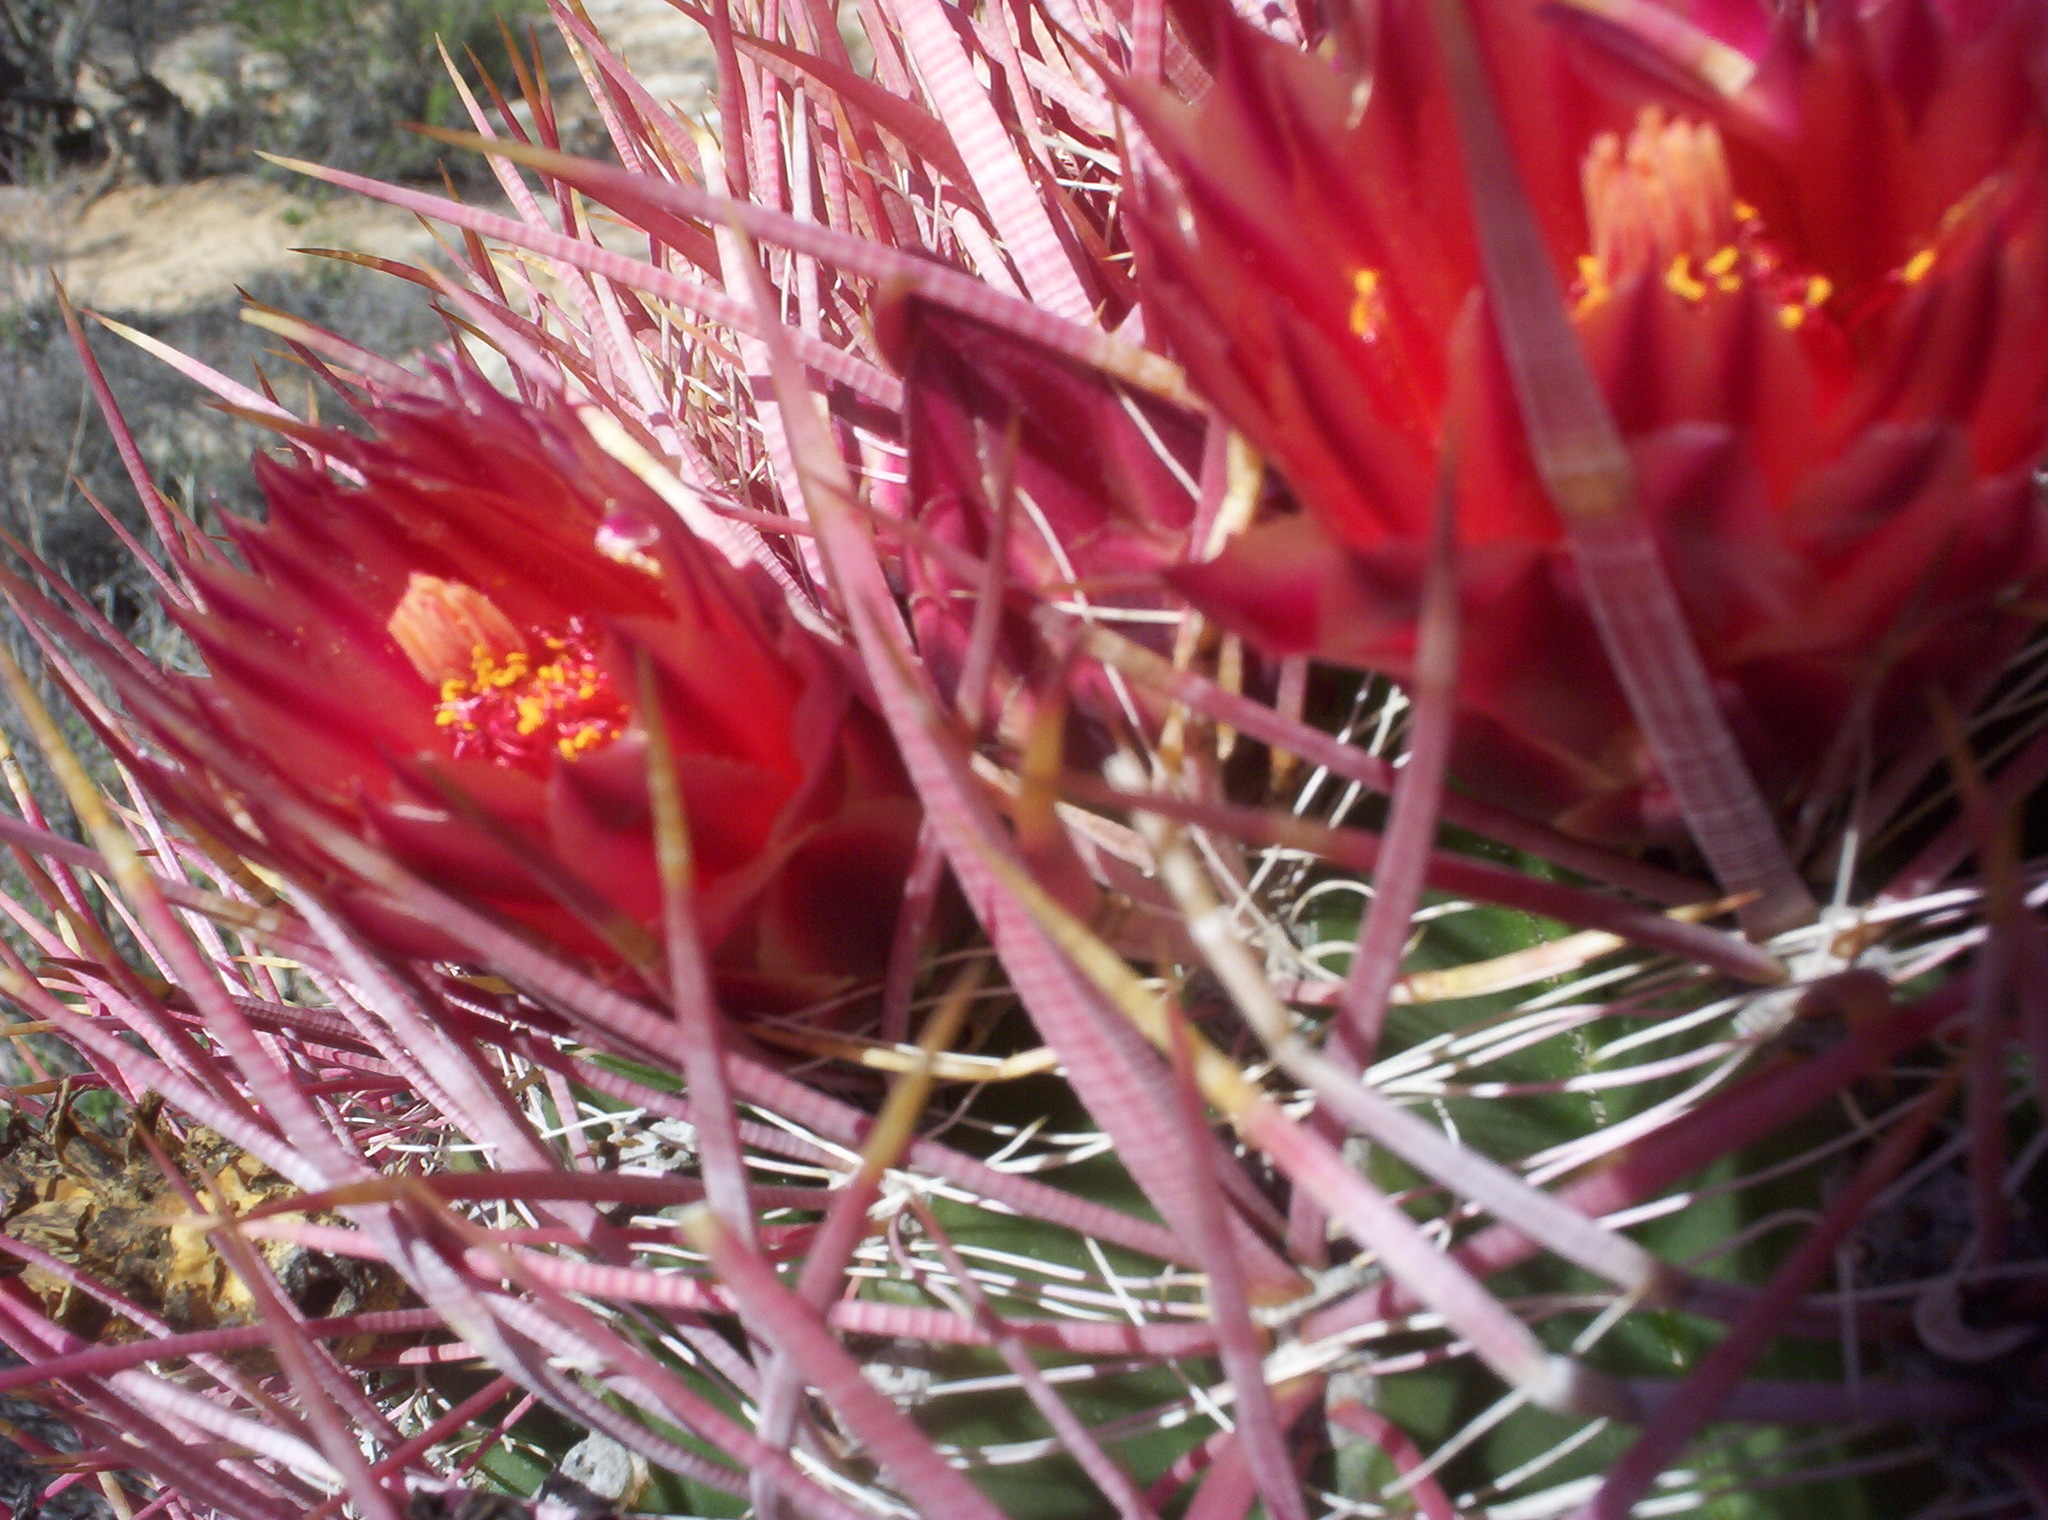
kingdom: Plantae
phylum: Tracheophyta
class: Magnoliopsida
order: Caryophyllales
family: Cactaceae
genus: Ferocactus
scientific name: Ferocactus gracilis
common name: Fire barrel cactus
